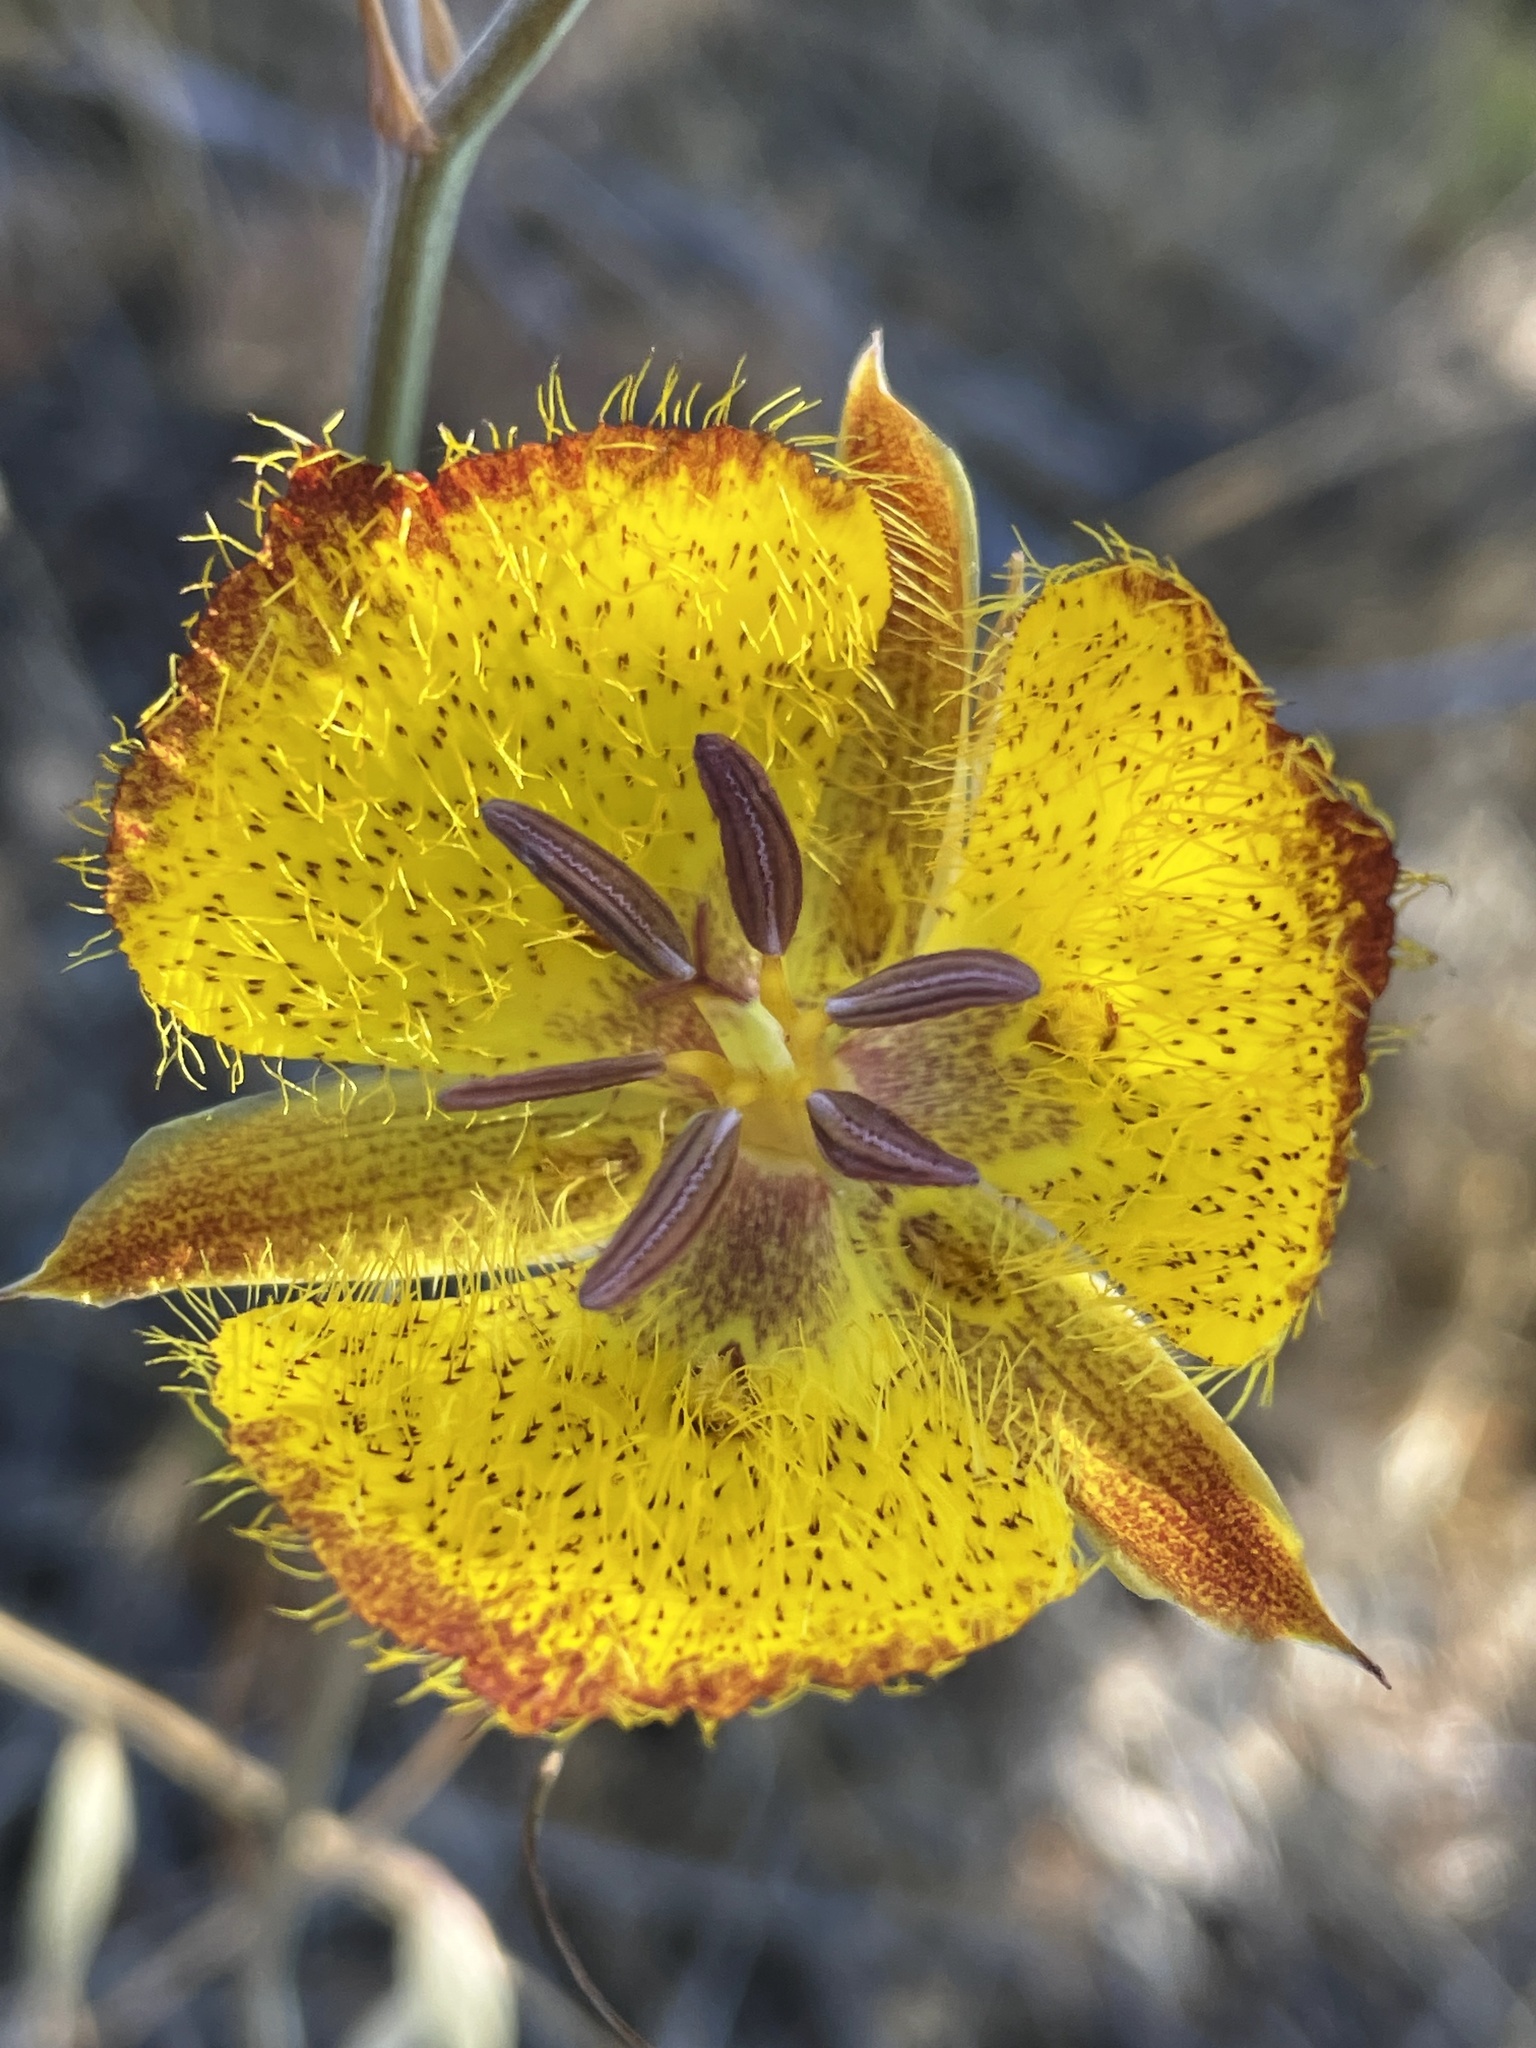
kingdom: Plantae
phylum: Tracheophyta
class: Liliopsida
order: Liliales
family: Liliaceae
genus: Calochortus
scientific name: Calochortus weedii
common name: Weed's mariposa-lily
